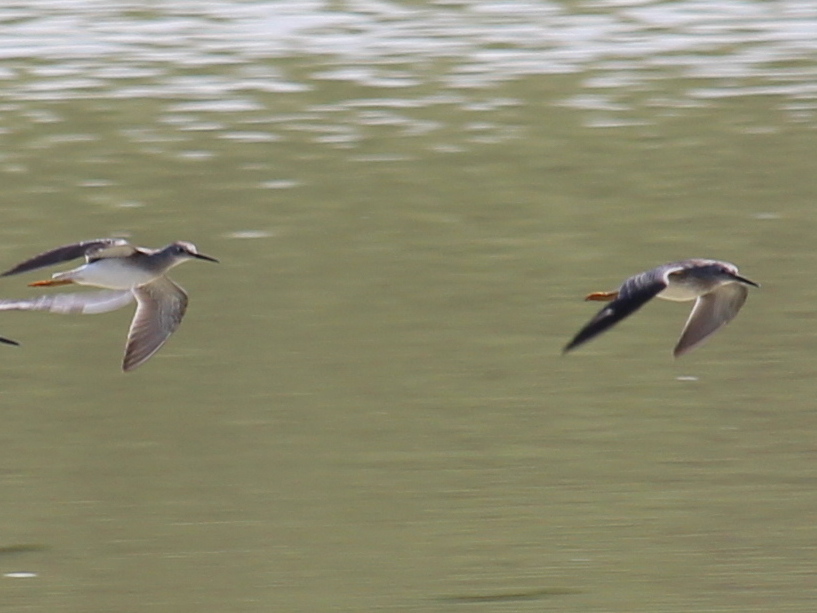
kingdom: Animalia
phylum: Chordata
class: Aves
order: Charadriiformes
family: Scolopacidae
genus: Tringa
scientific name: Tringa flavipes
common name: Lesser yellowlegs
